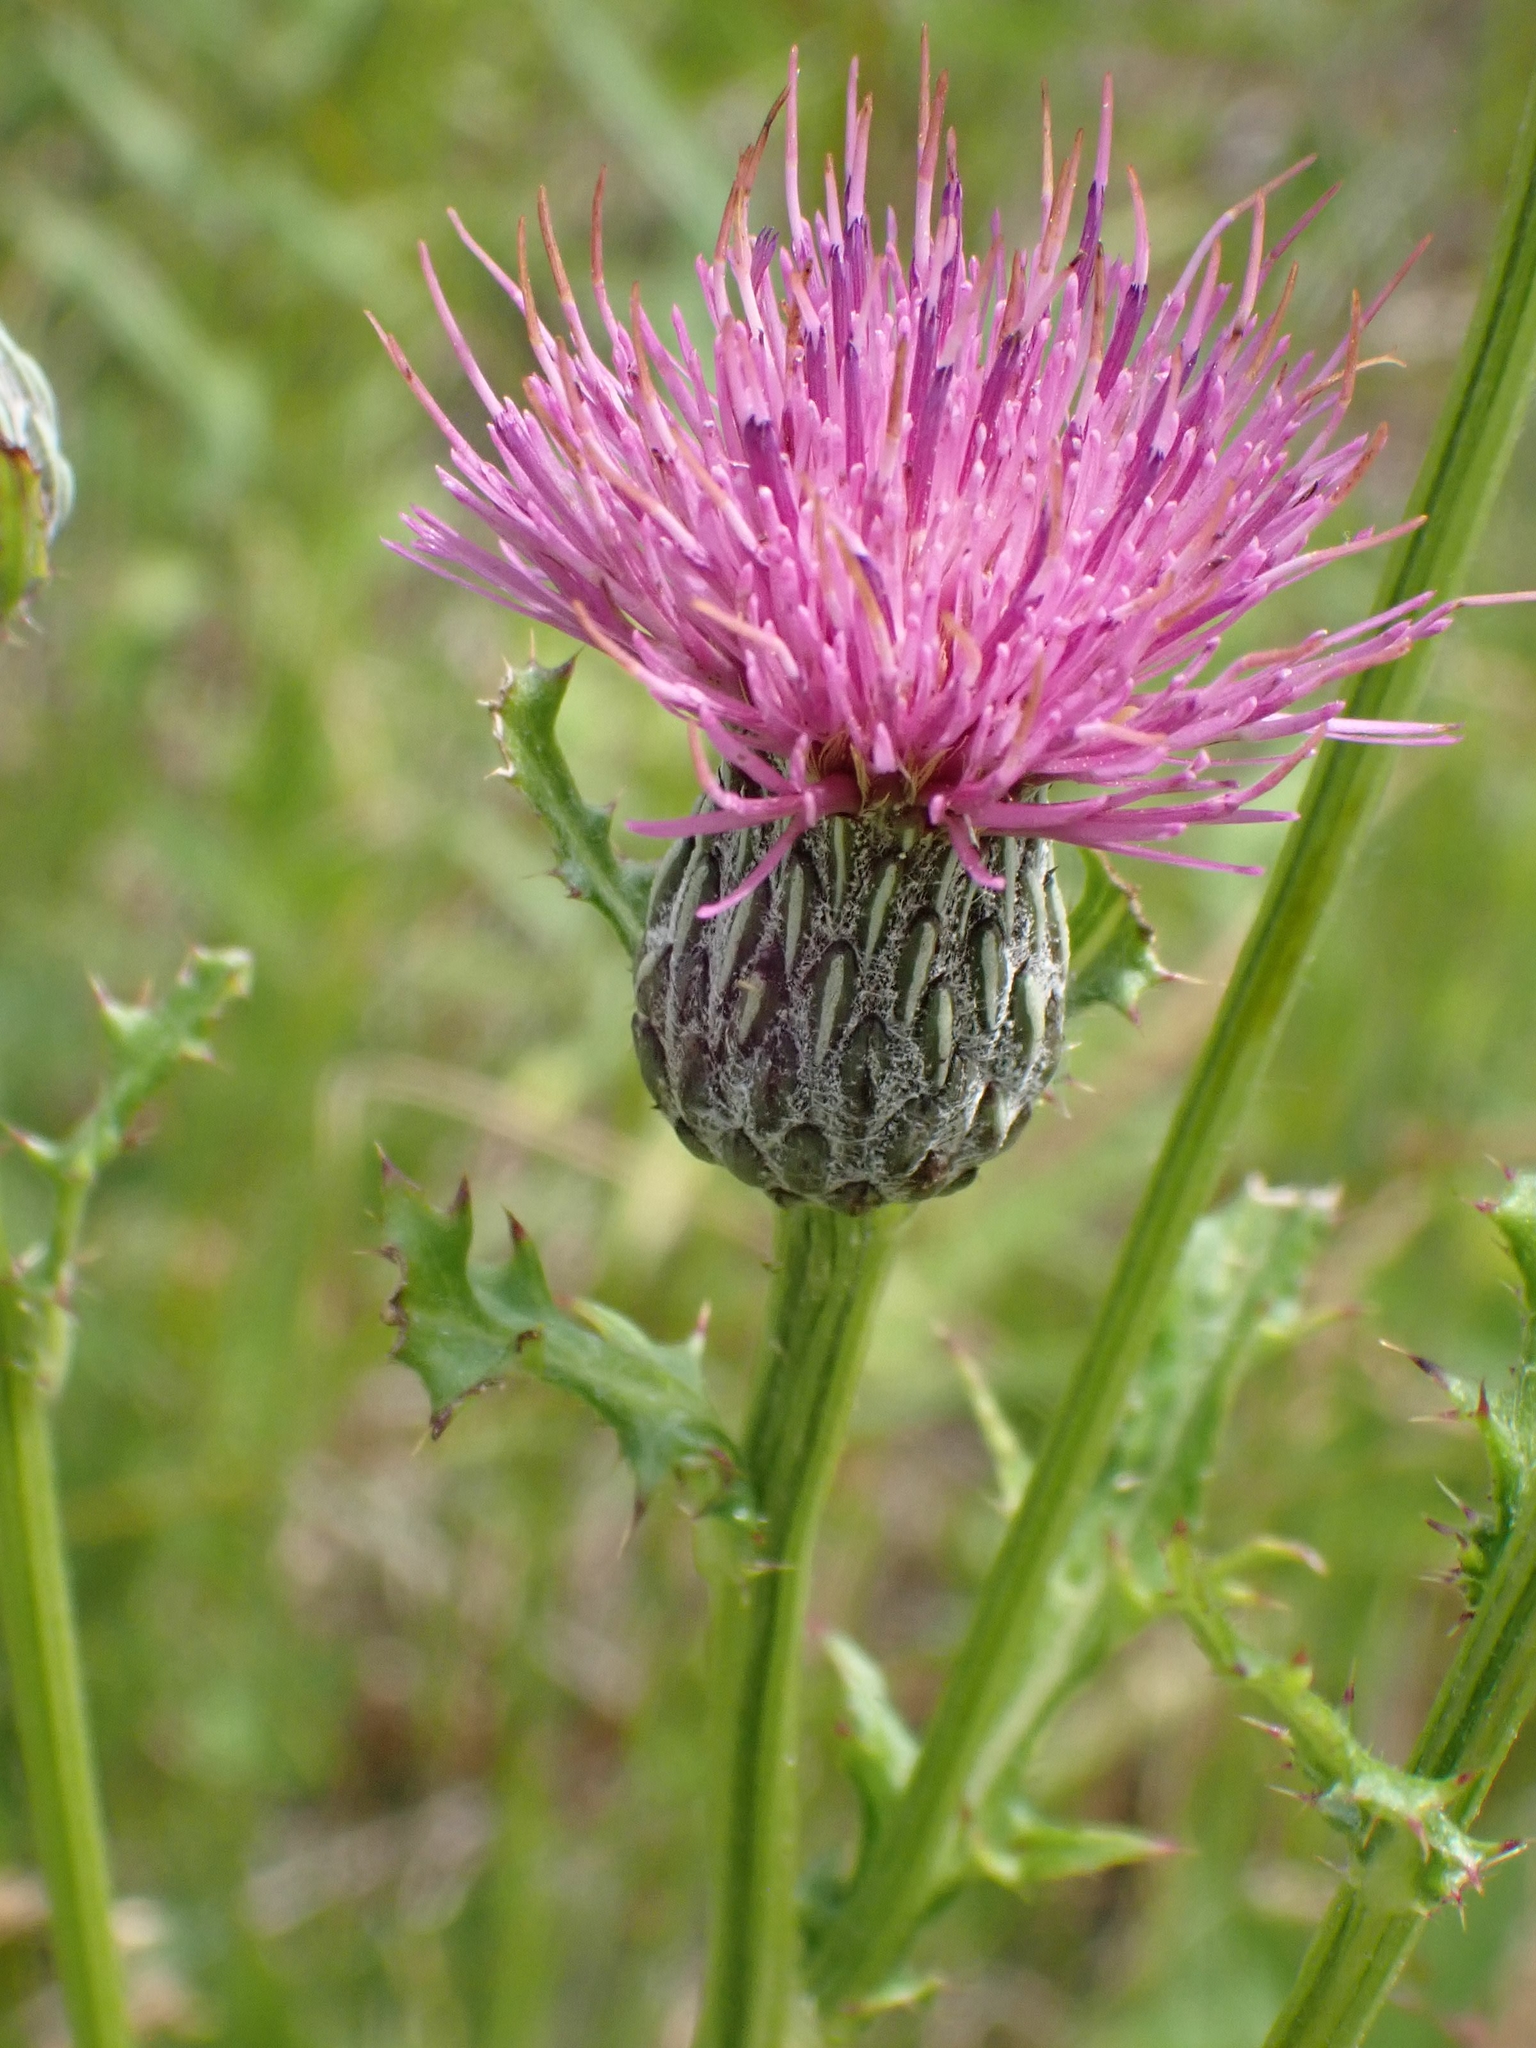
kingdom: Plantae
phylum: Tracheophyta
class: Magnoliopsida
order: Asterales
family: Asteraceae
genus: Cirsium
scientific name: Cirsium muticum
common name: Dunce-nettle
